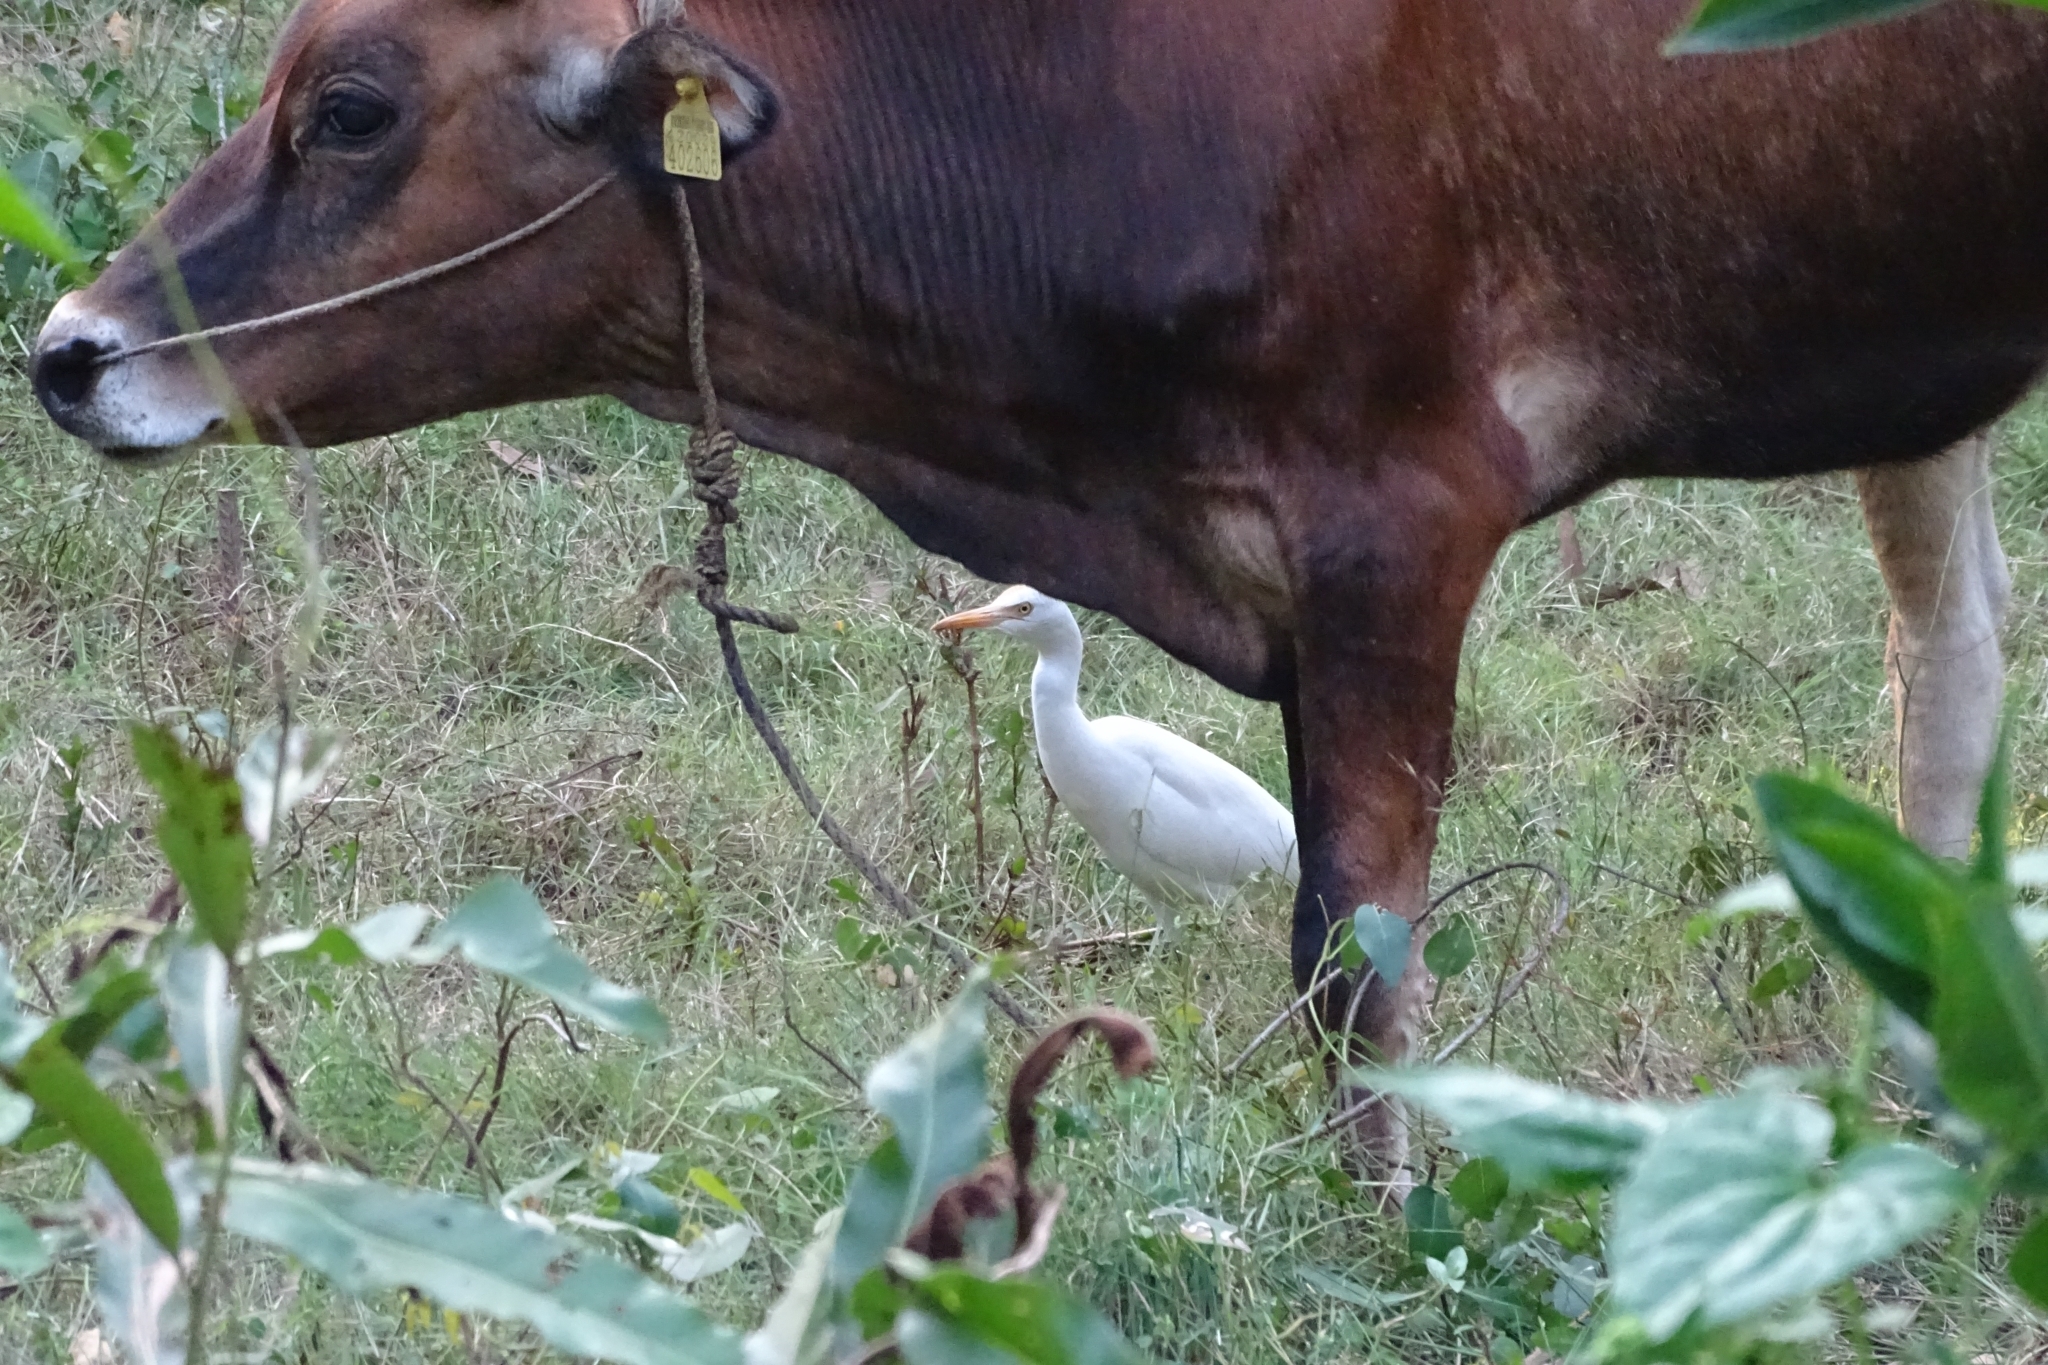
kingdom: Animalia
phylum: Chordata
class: Aves
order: Pelecaniformes
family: Ardeidae
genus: Bubulcus
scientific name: Bubulcus coromandus
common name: Eastern cattle egret
